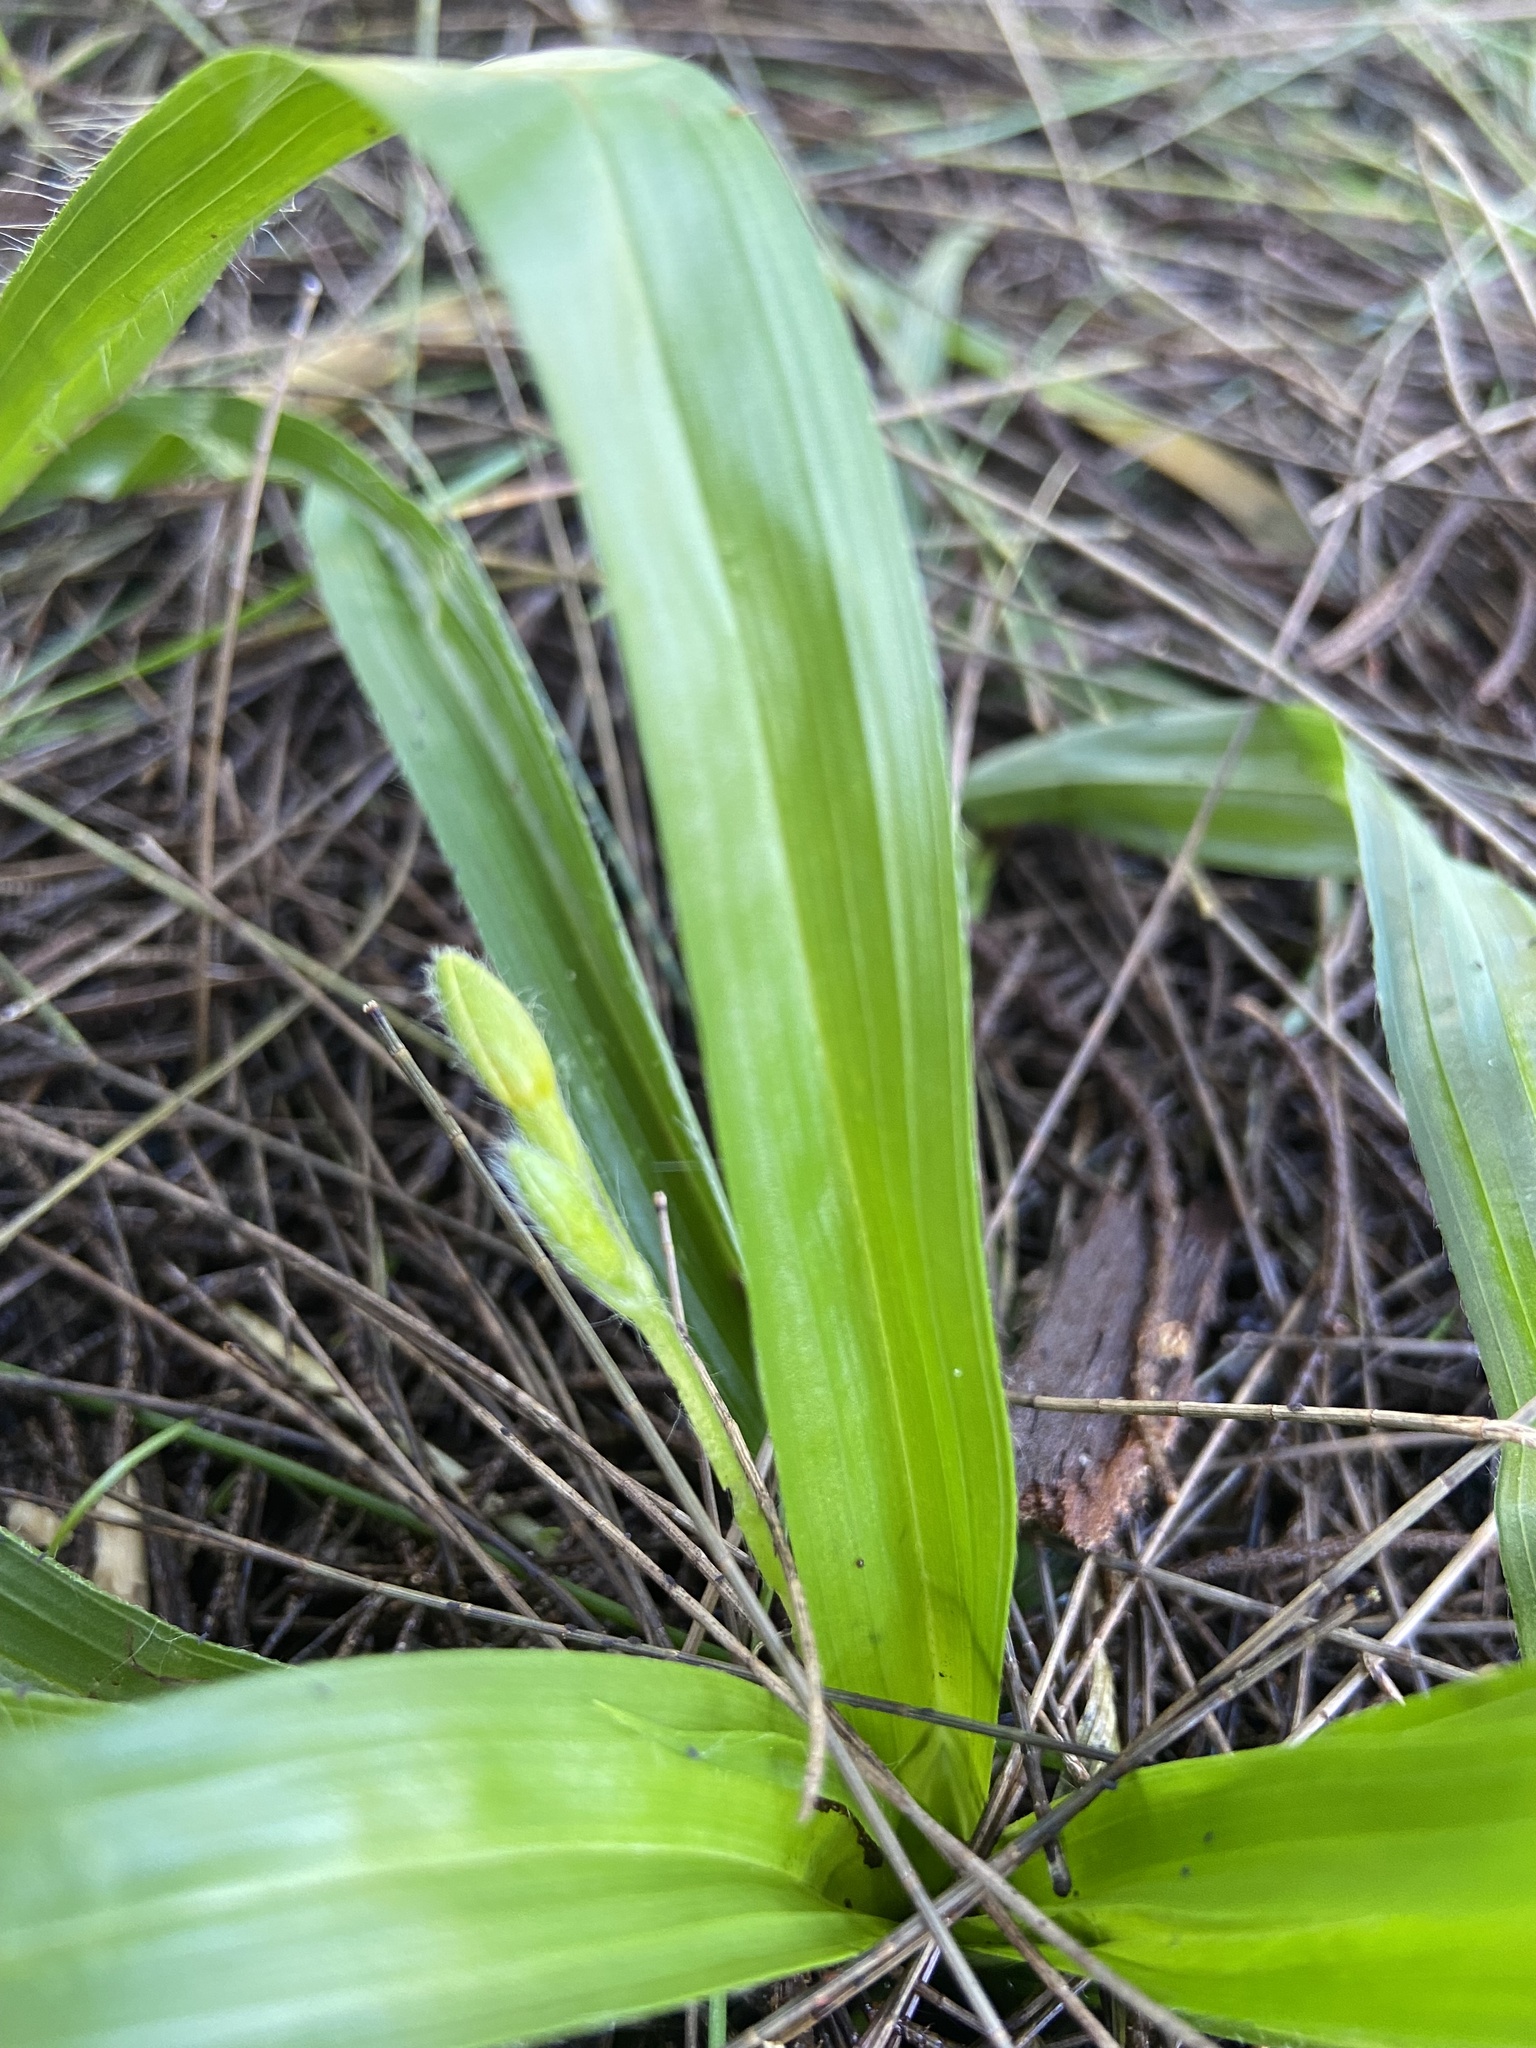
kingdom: Plantae
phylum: Tracheophyta
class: Liliopsida
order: Asparagales
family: Hypoxidaceae
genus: Hypoxis
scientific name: Hypoxis decumbens
